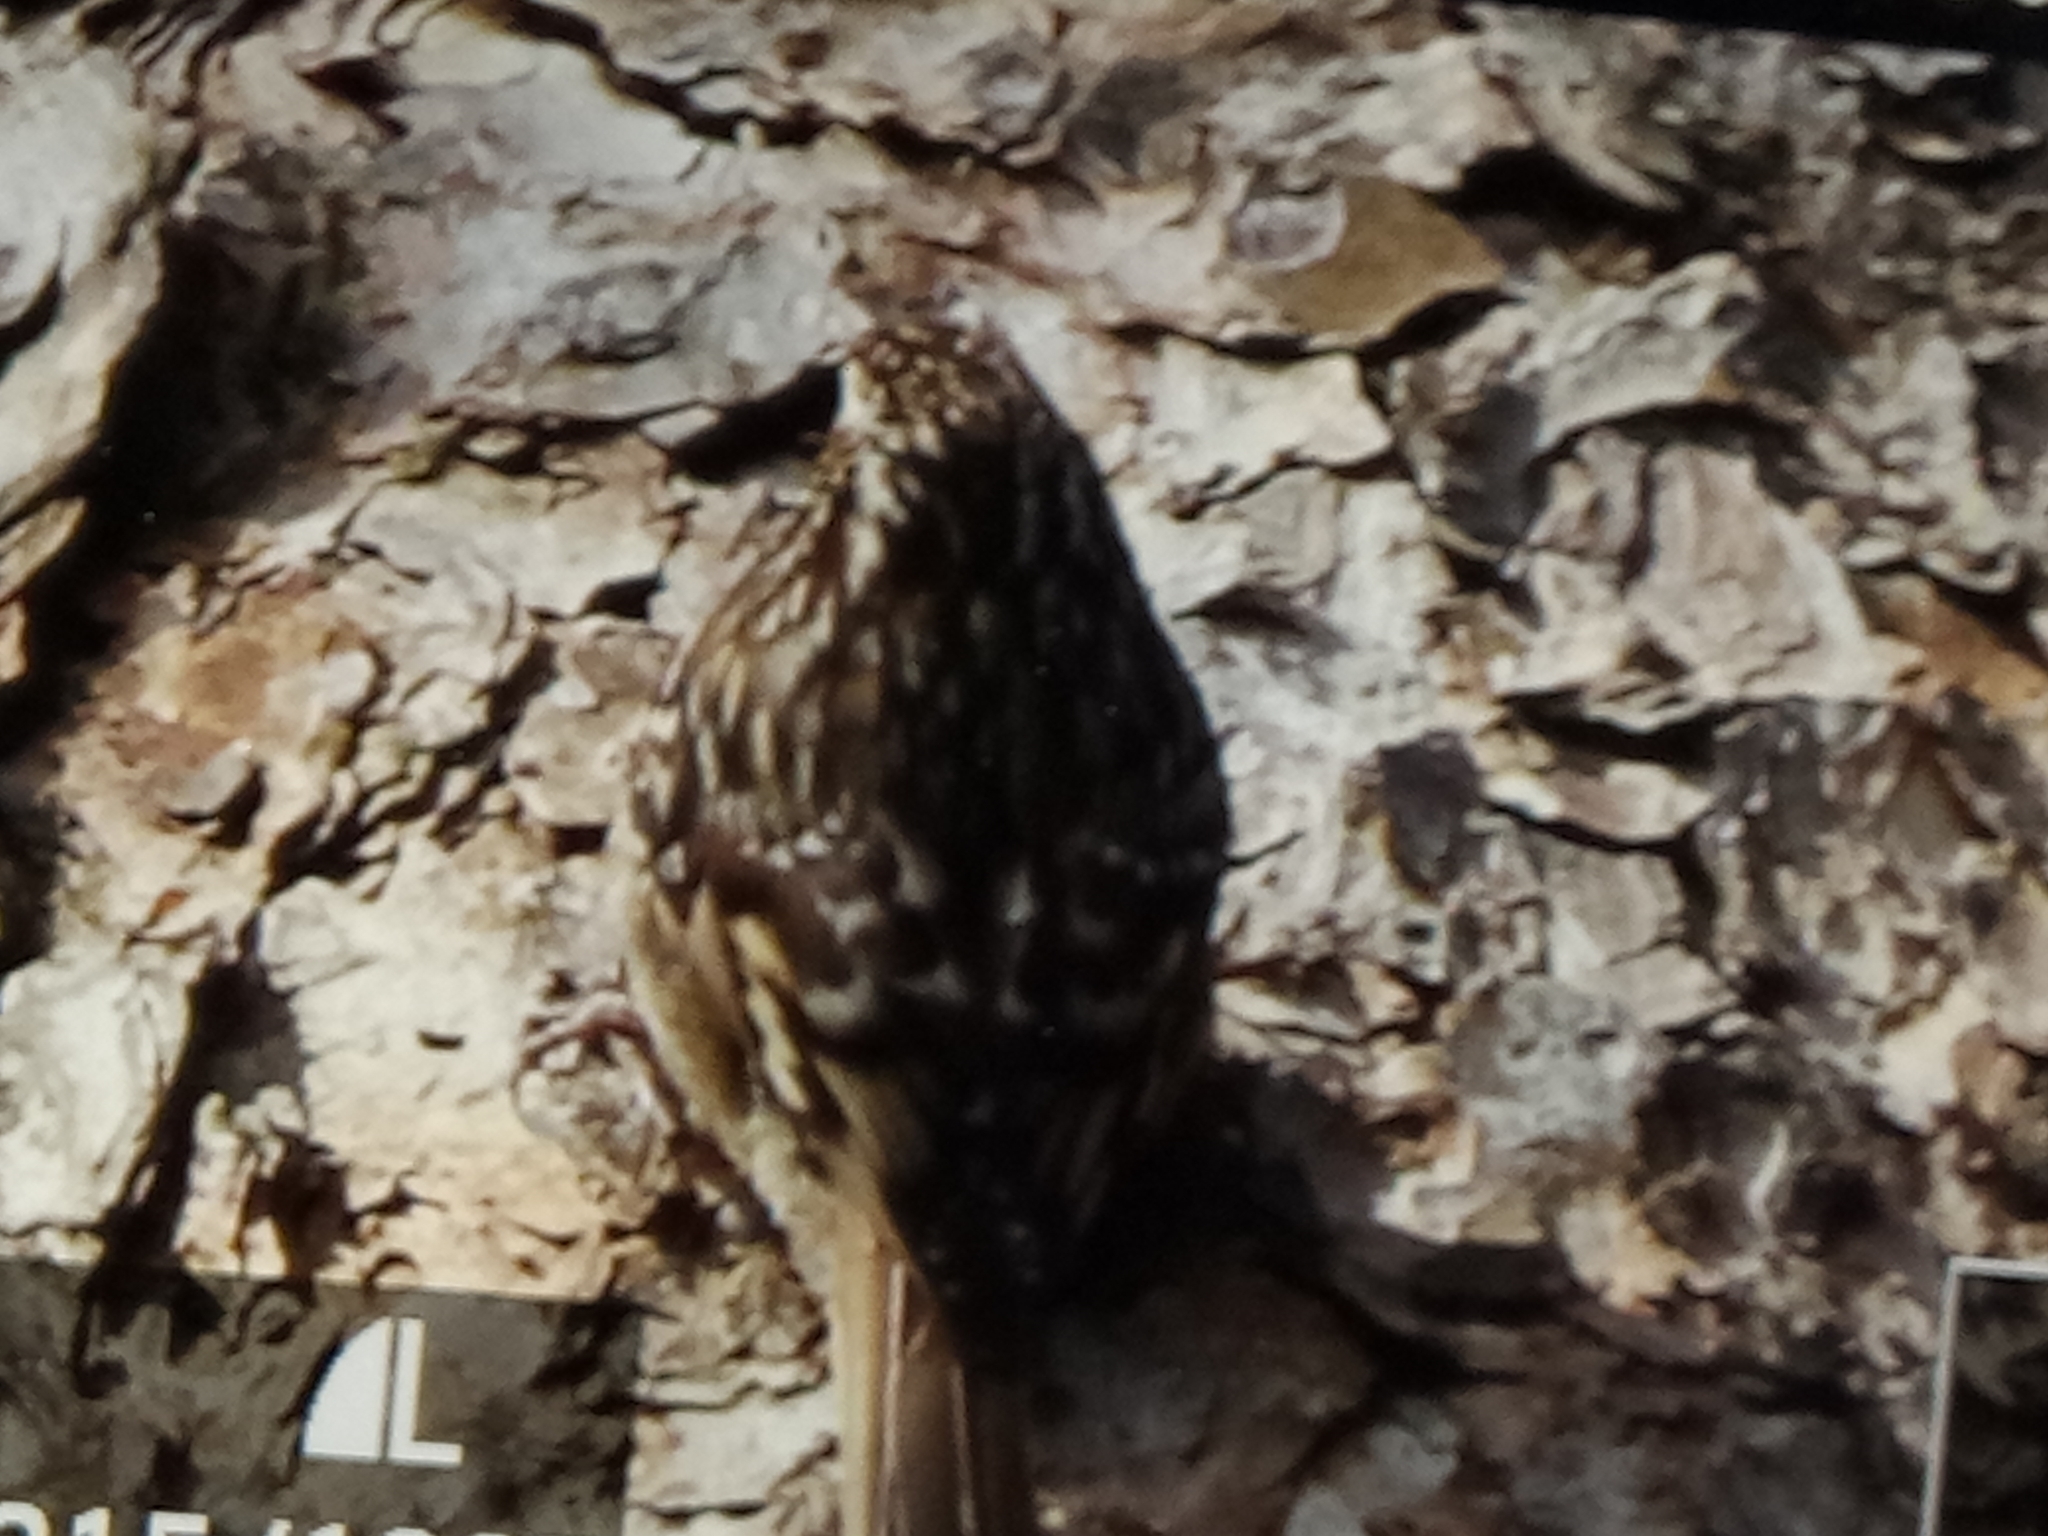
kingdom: Animalia
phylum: Chordata
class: Aves
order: Passeriformes
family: Certhiidae
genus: Certhia
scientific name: Certhia brachydactyla
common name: Short-toed treecreeper
